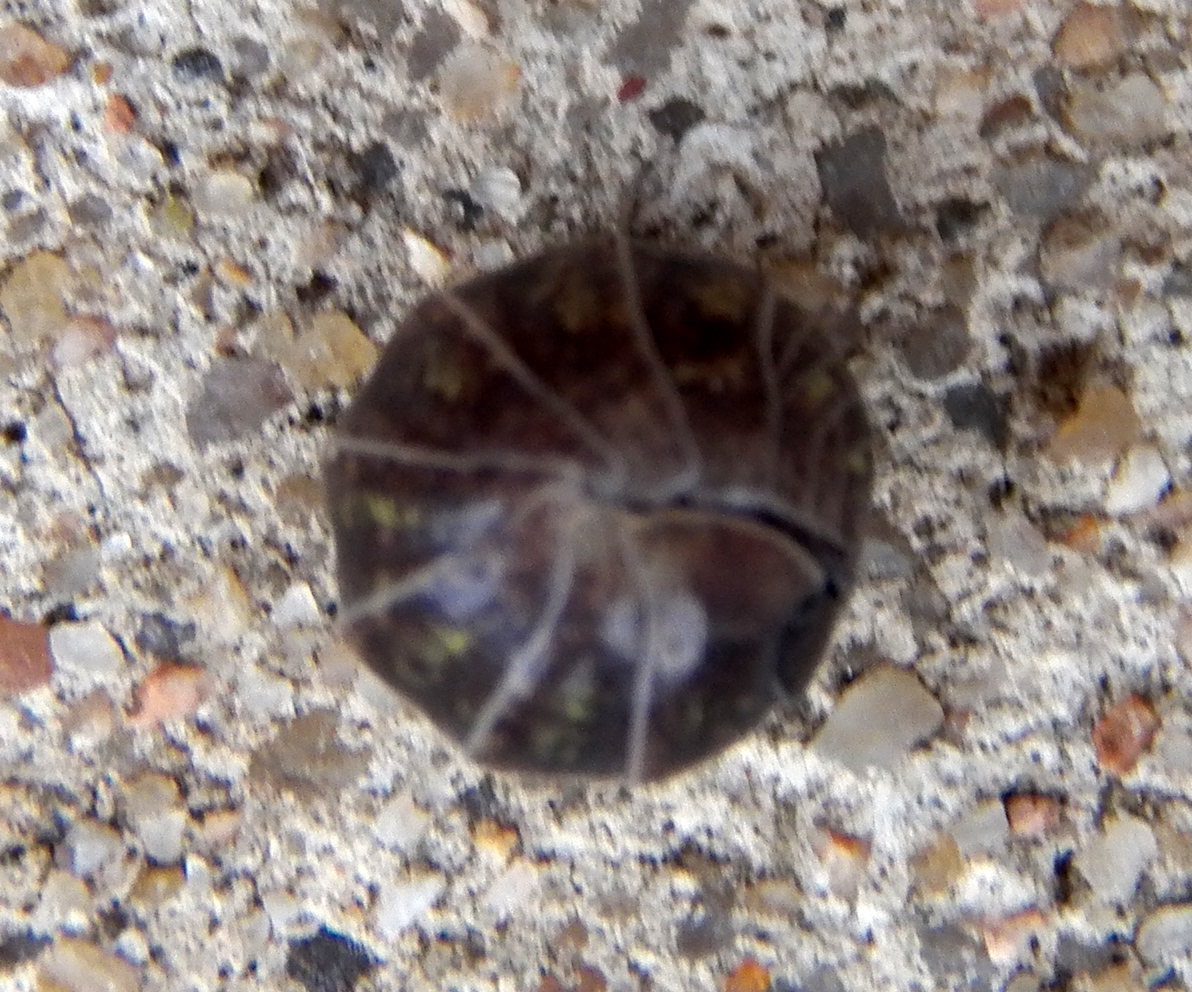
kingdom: Animalia
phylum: Arthropoda
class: Malacostraca
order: Isopoda
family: Armadillidiidae
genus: Armadillidium
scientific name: Armadillidium vulgare
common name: Common pill woodlouse
